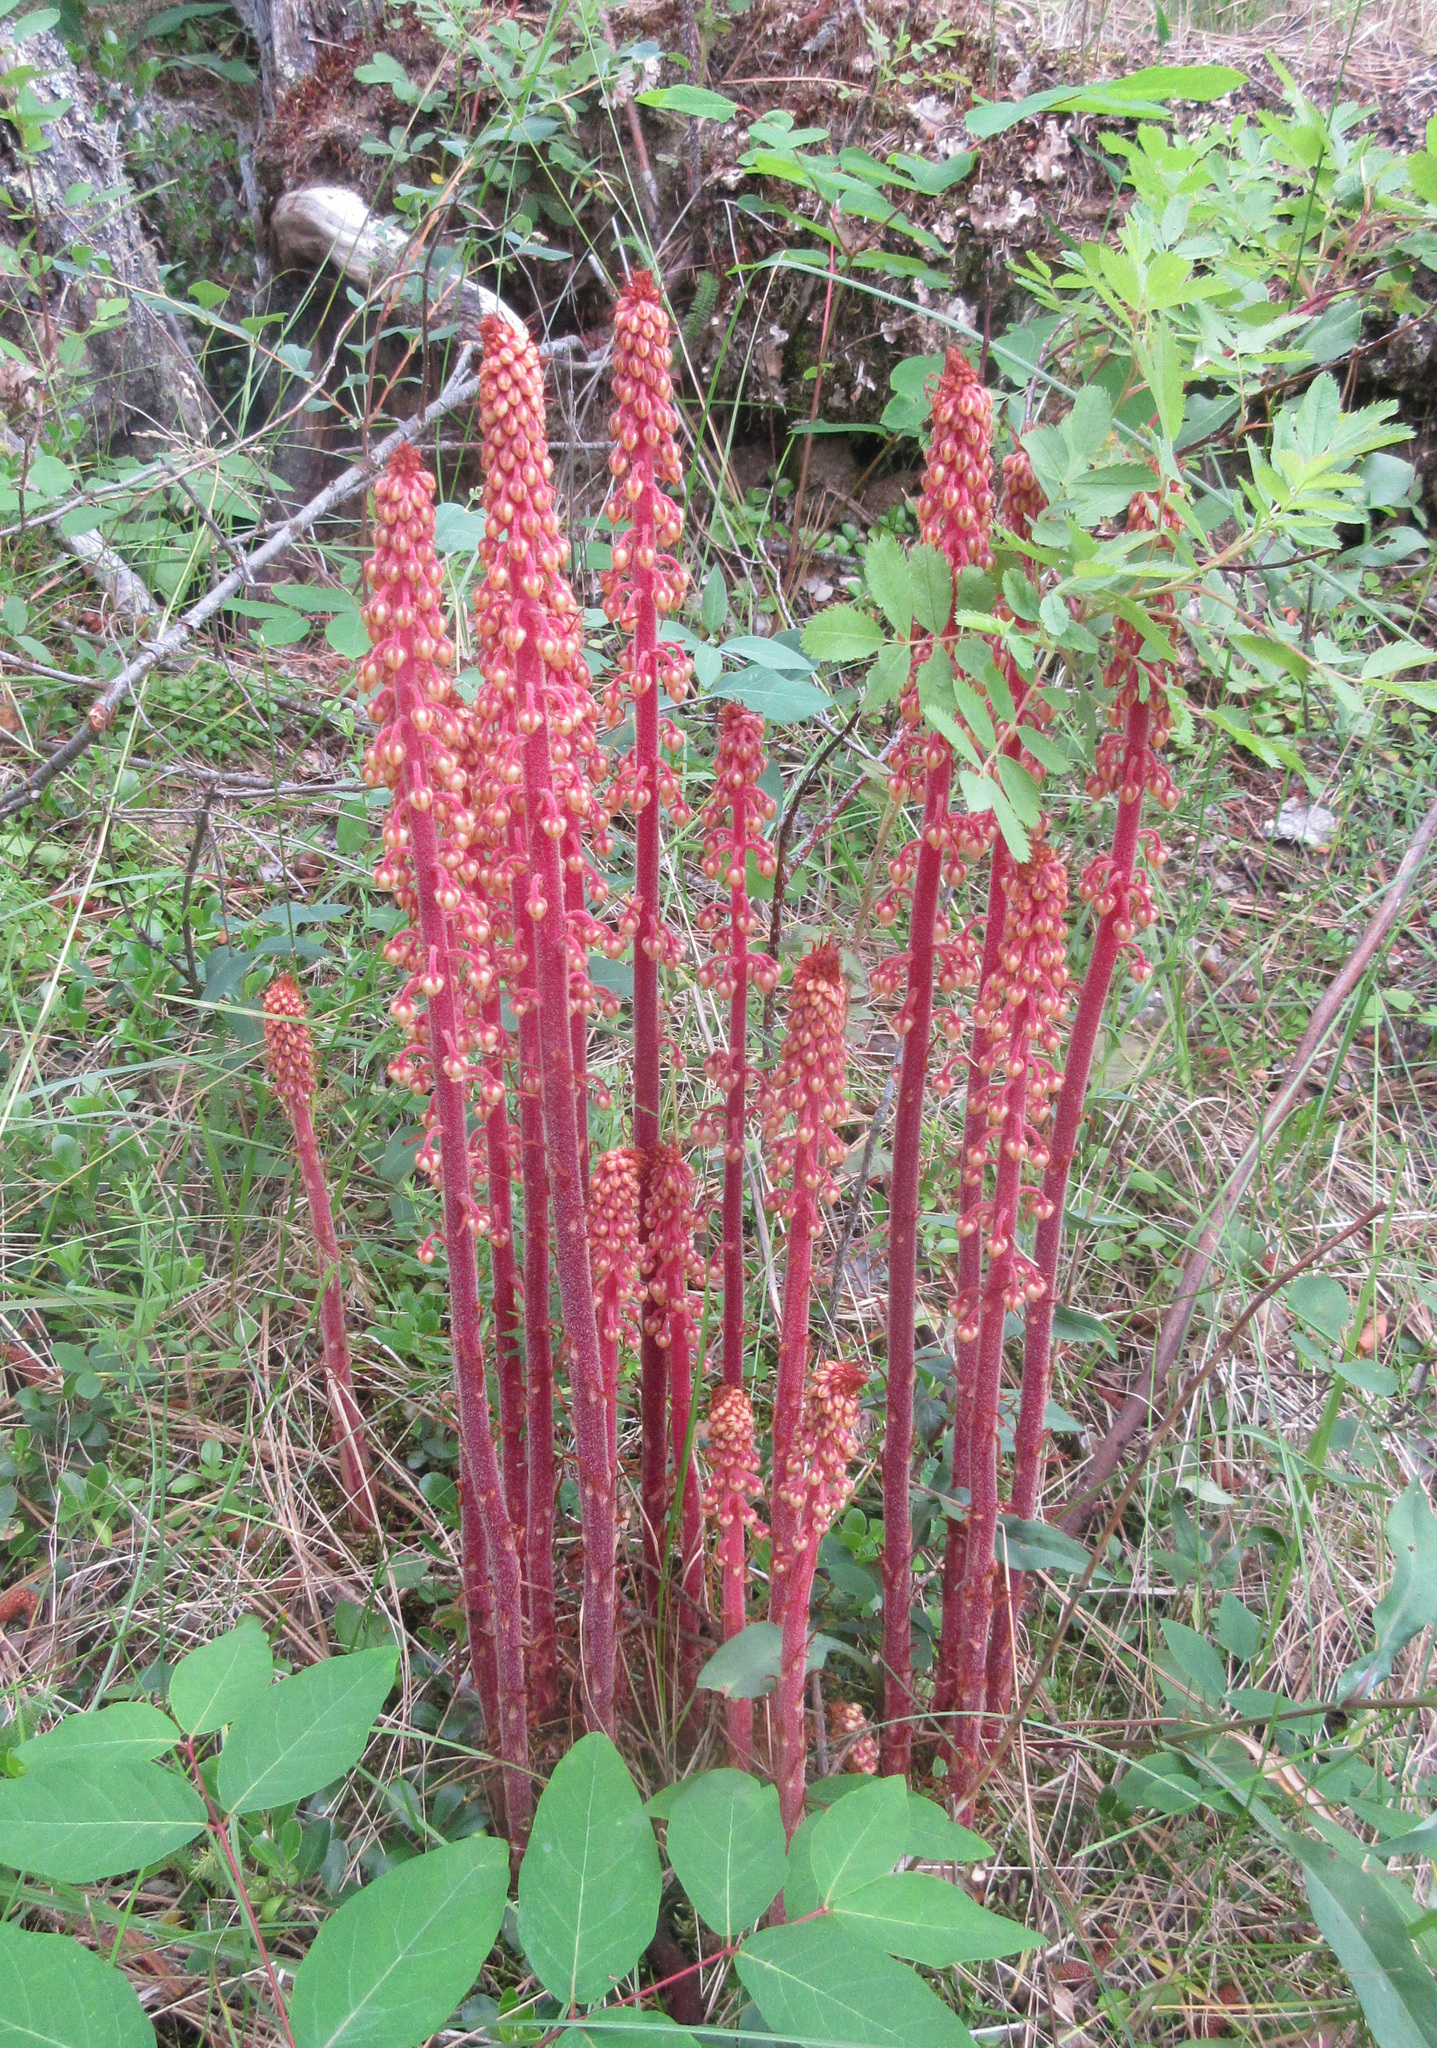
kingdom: Plantae
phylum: Tracheophyta
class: Magnoliopsida
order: Ericales
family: Ericaceae
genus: Pterospora
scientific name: Pterospora andromedea
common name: Giant bird's-nest
